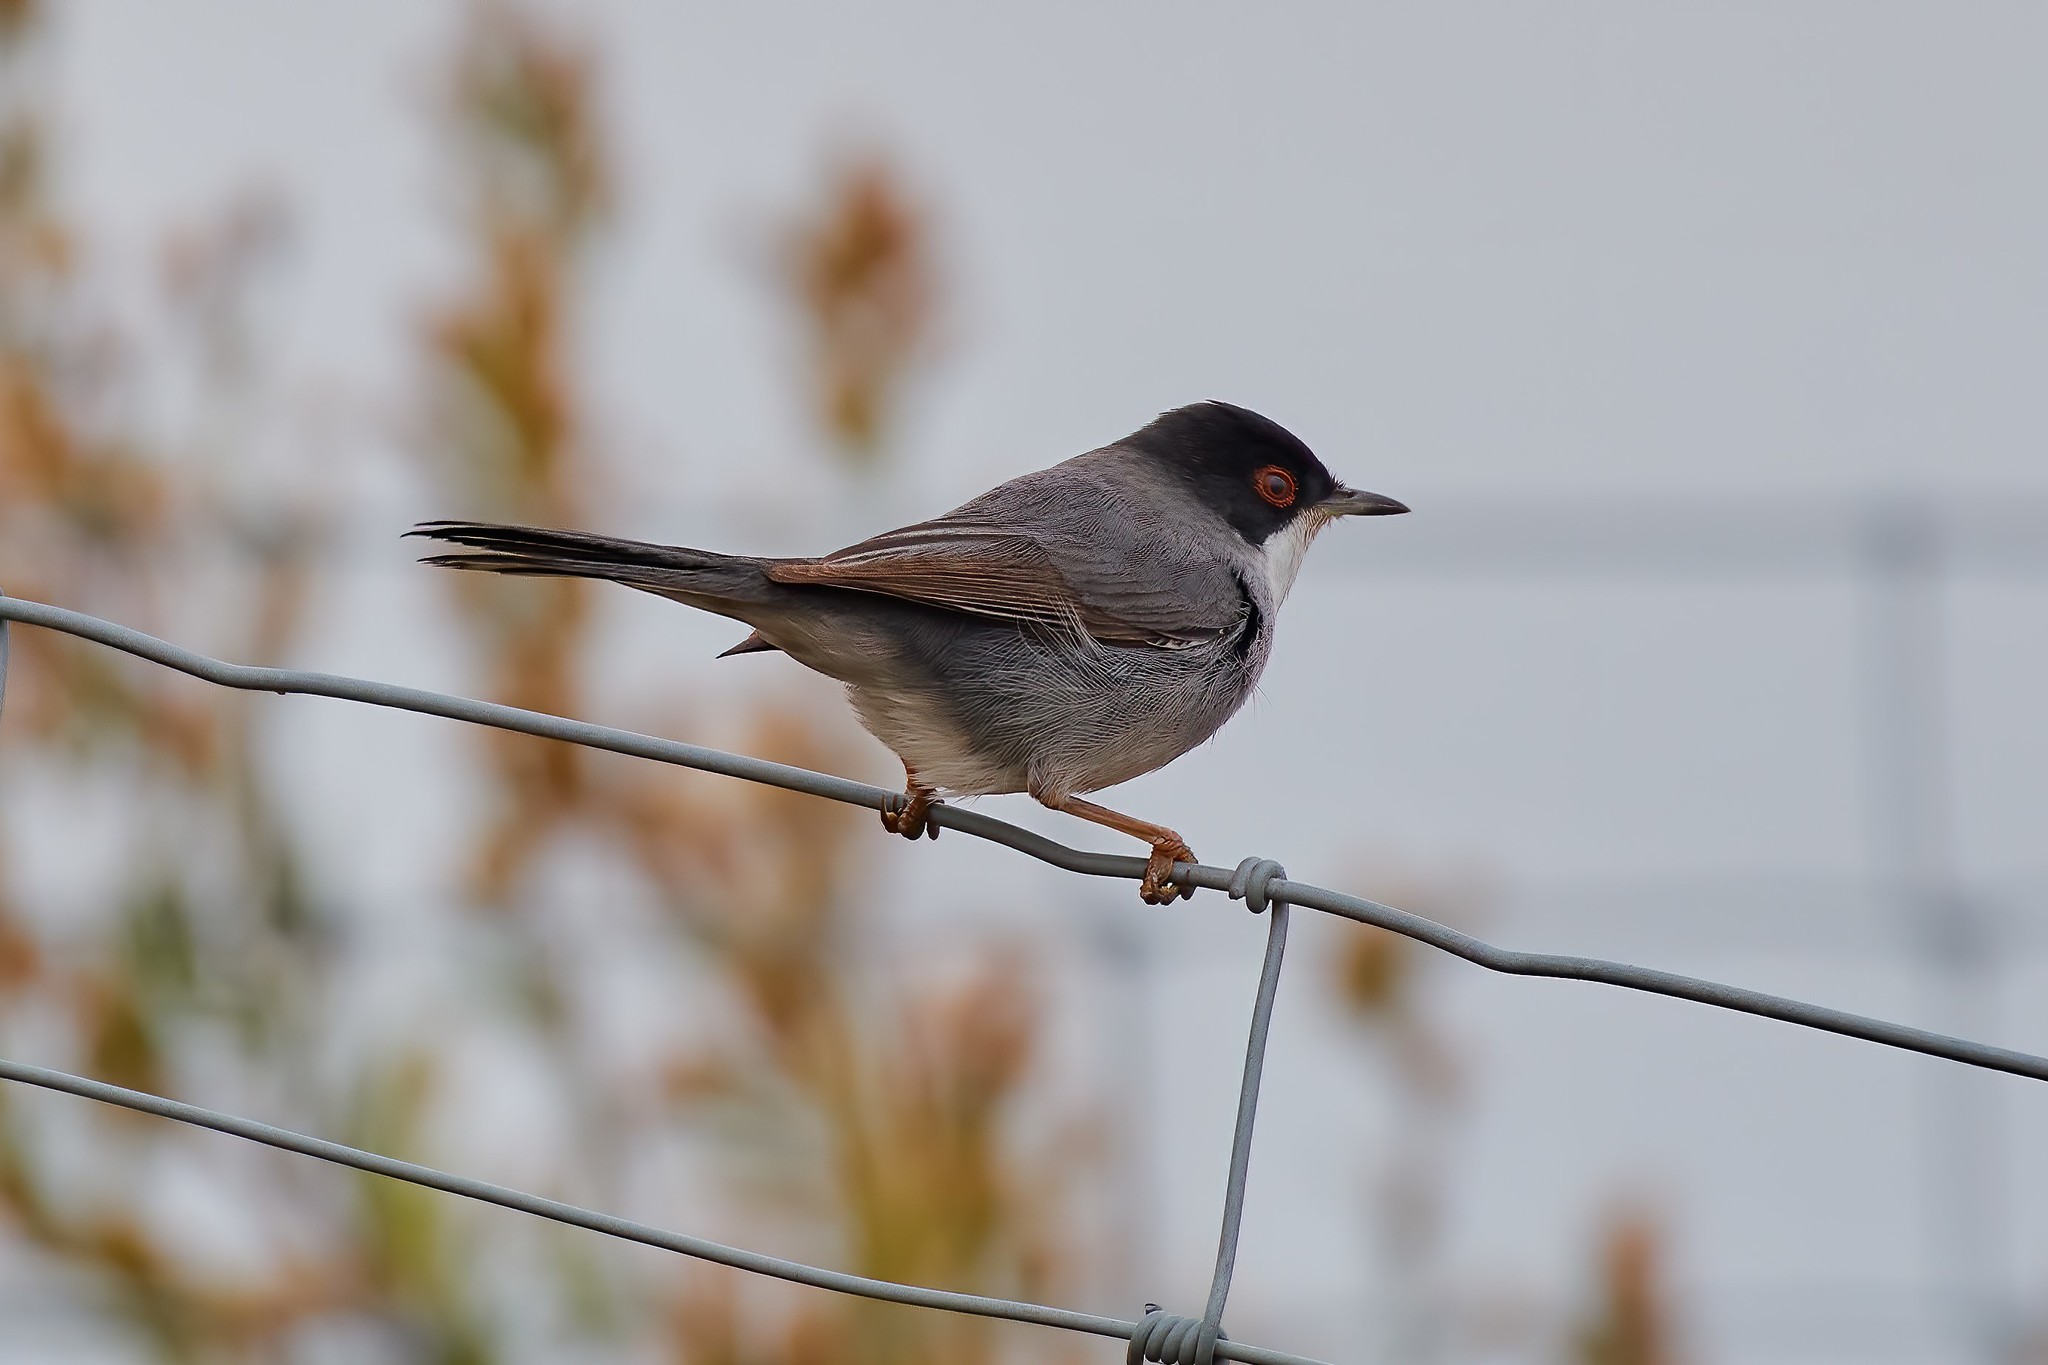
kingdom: Animalia
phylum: Chordata
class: Aves
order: Passeriformes
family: Sylviidae
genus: Curruca
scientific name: Curruca melanocephala
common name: Sardinian warbler
